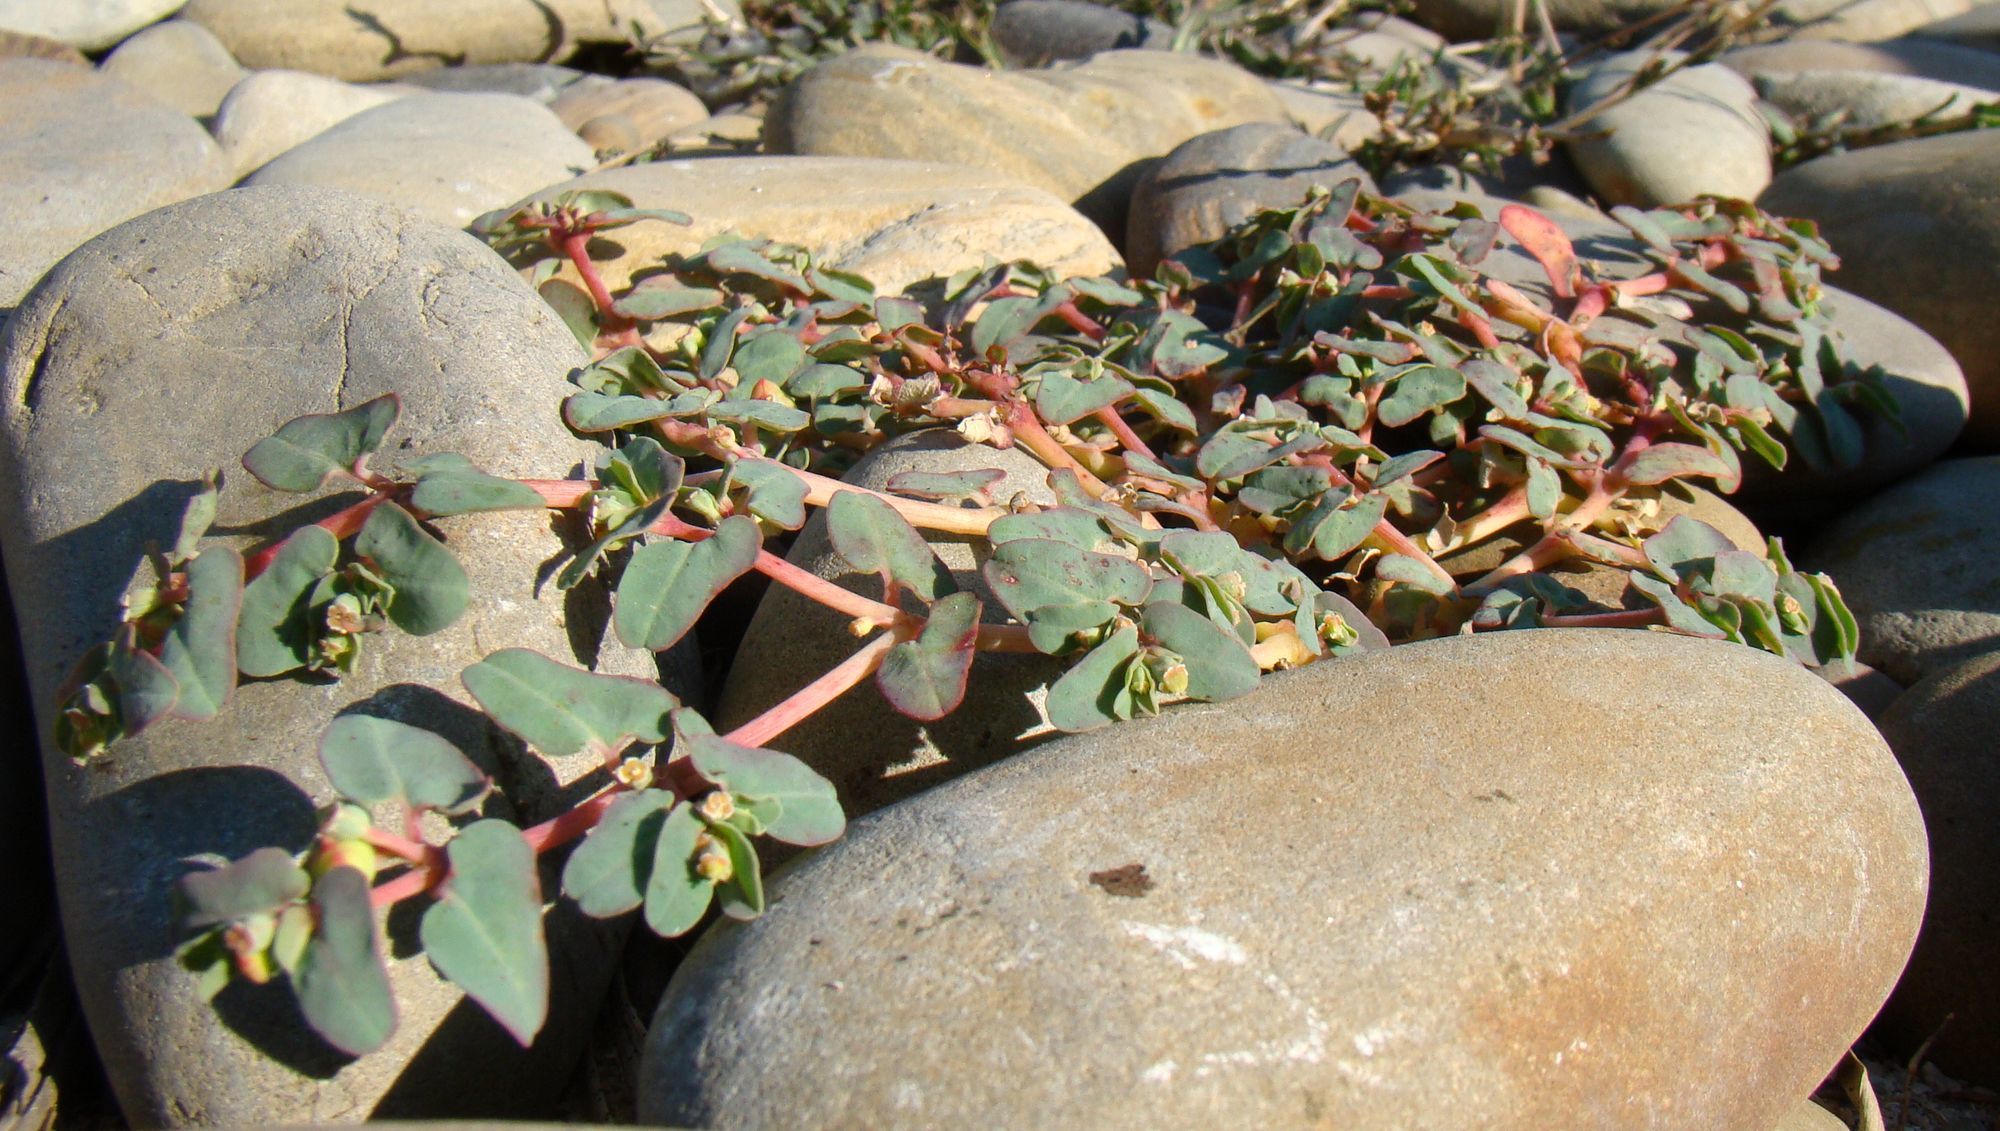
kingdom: Plantae
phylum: Tracheophyta
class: Magnoliopsida
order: Malpighiales
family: Euphorbiaceae
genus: Euphorbia
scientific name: Euphorbia peplis
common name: Purple spurge
